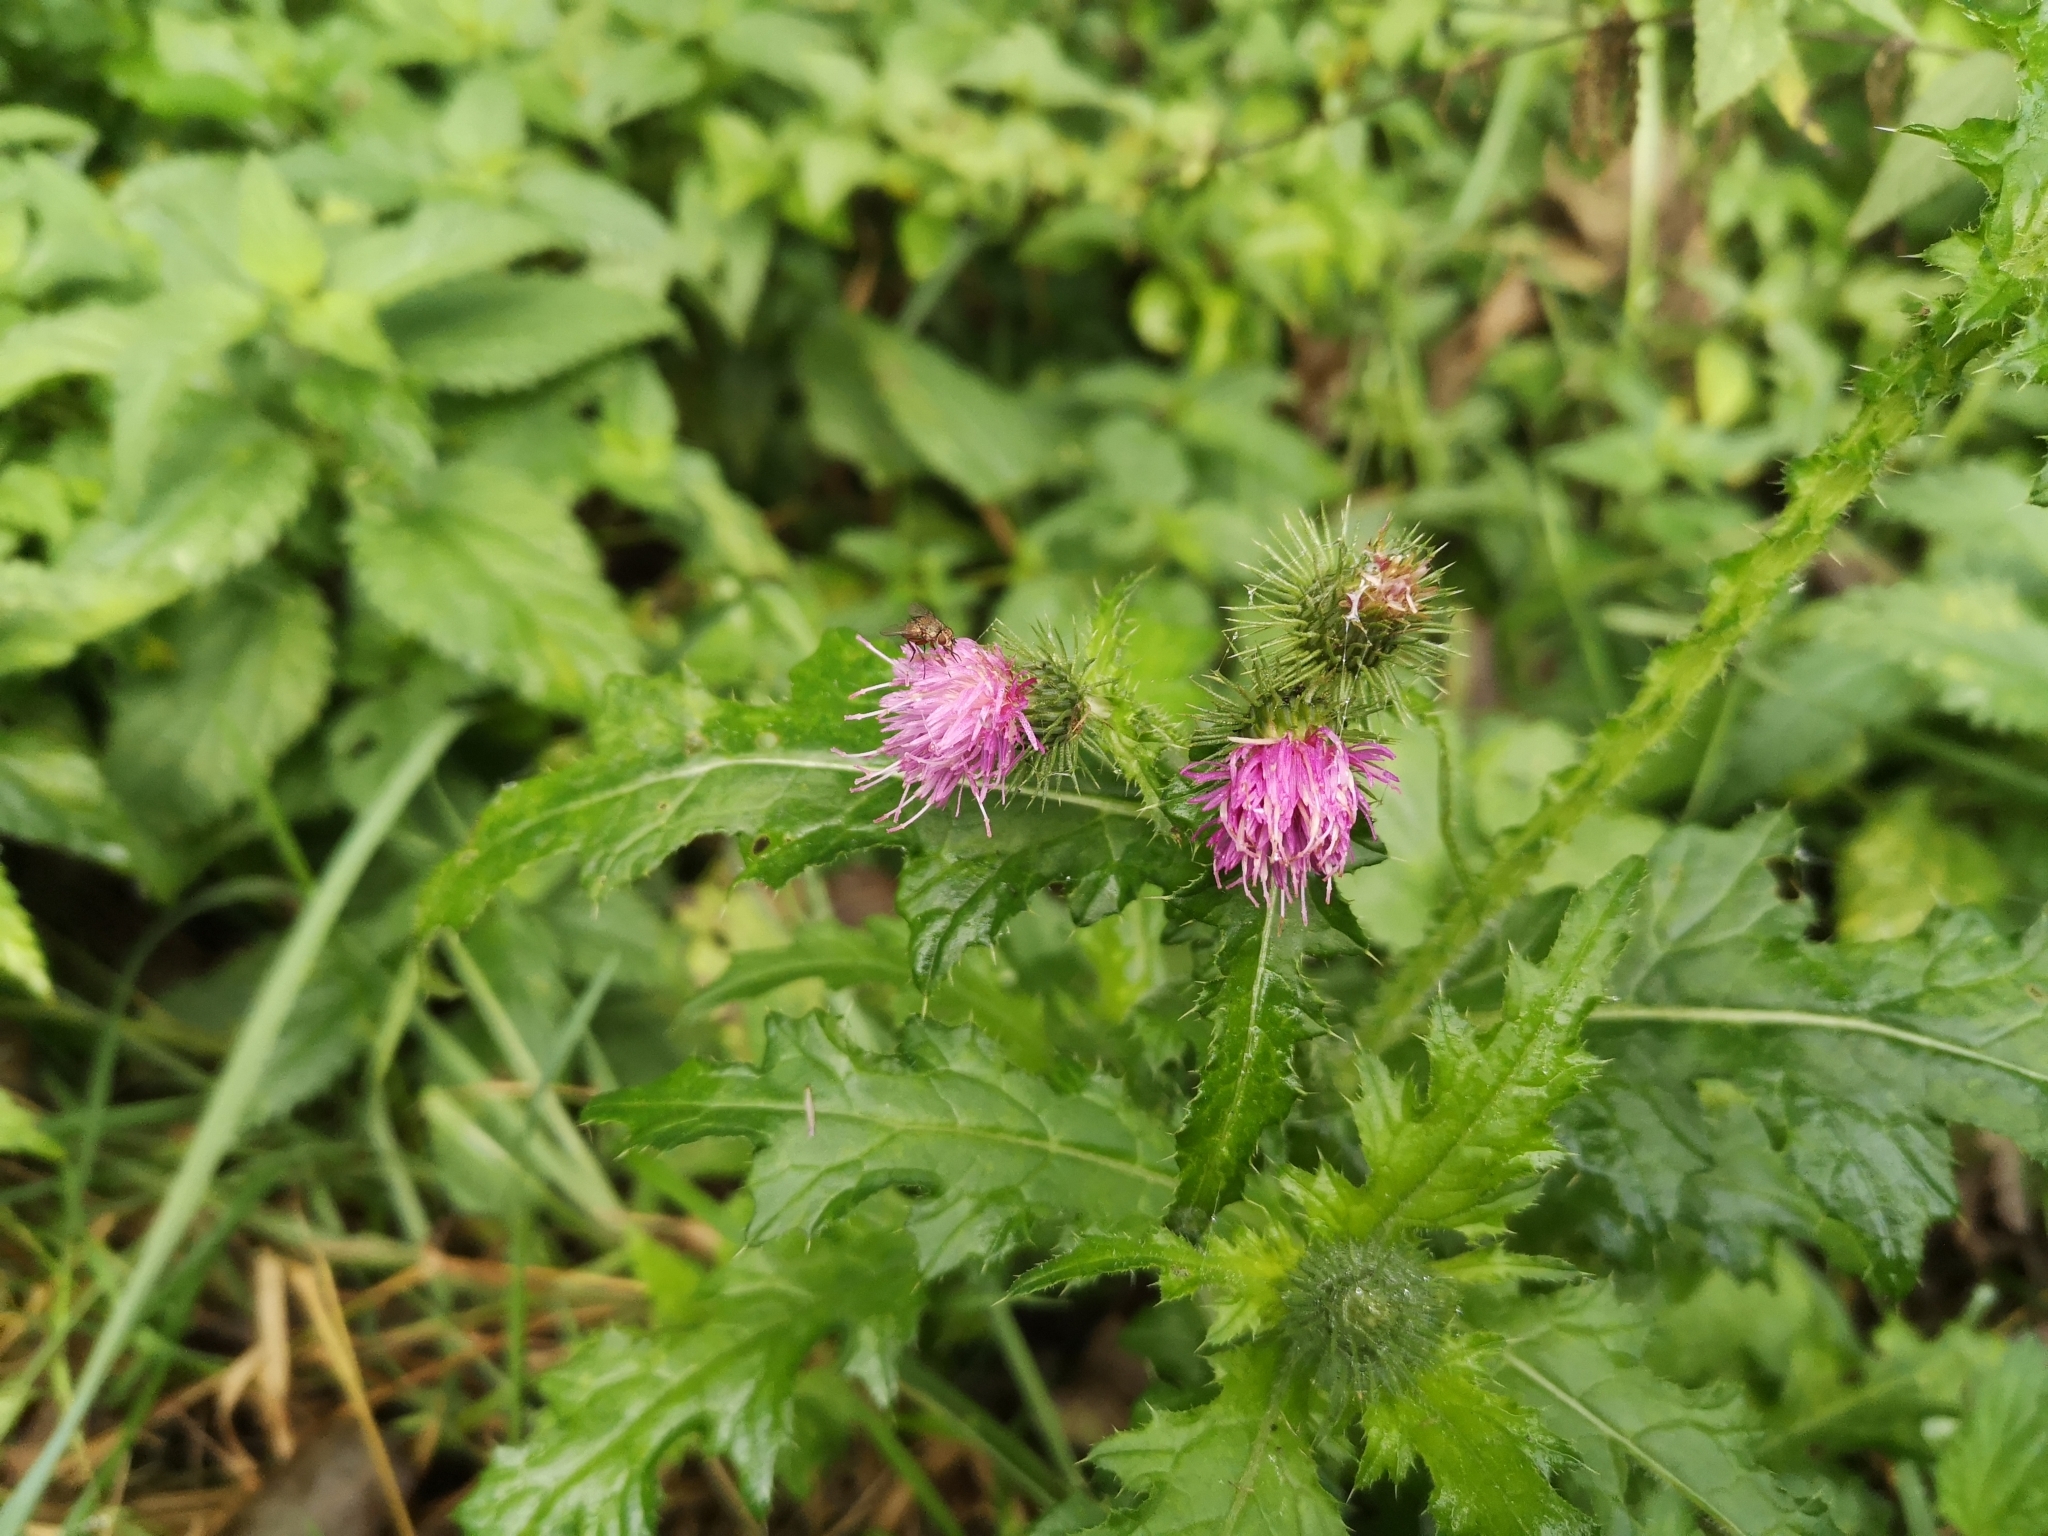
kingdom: Plantae
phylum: Tracheophyta
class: Magnoliopsida
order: Asterales
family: Asteraceae
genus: Carduus
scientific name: Carduus crispus
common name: Welted thistle
